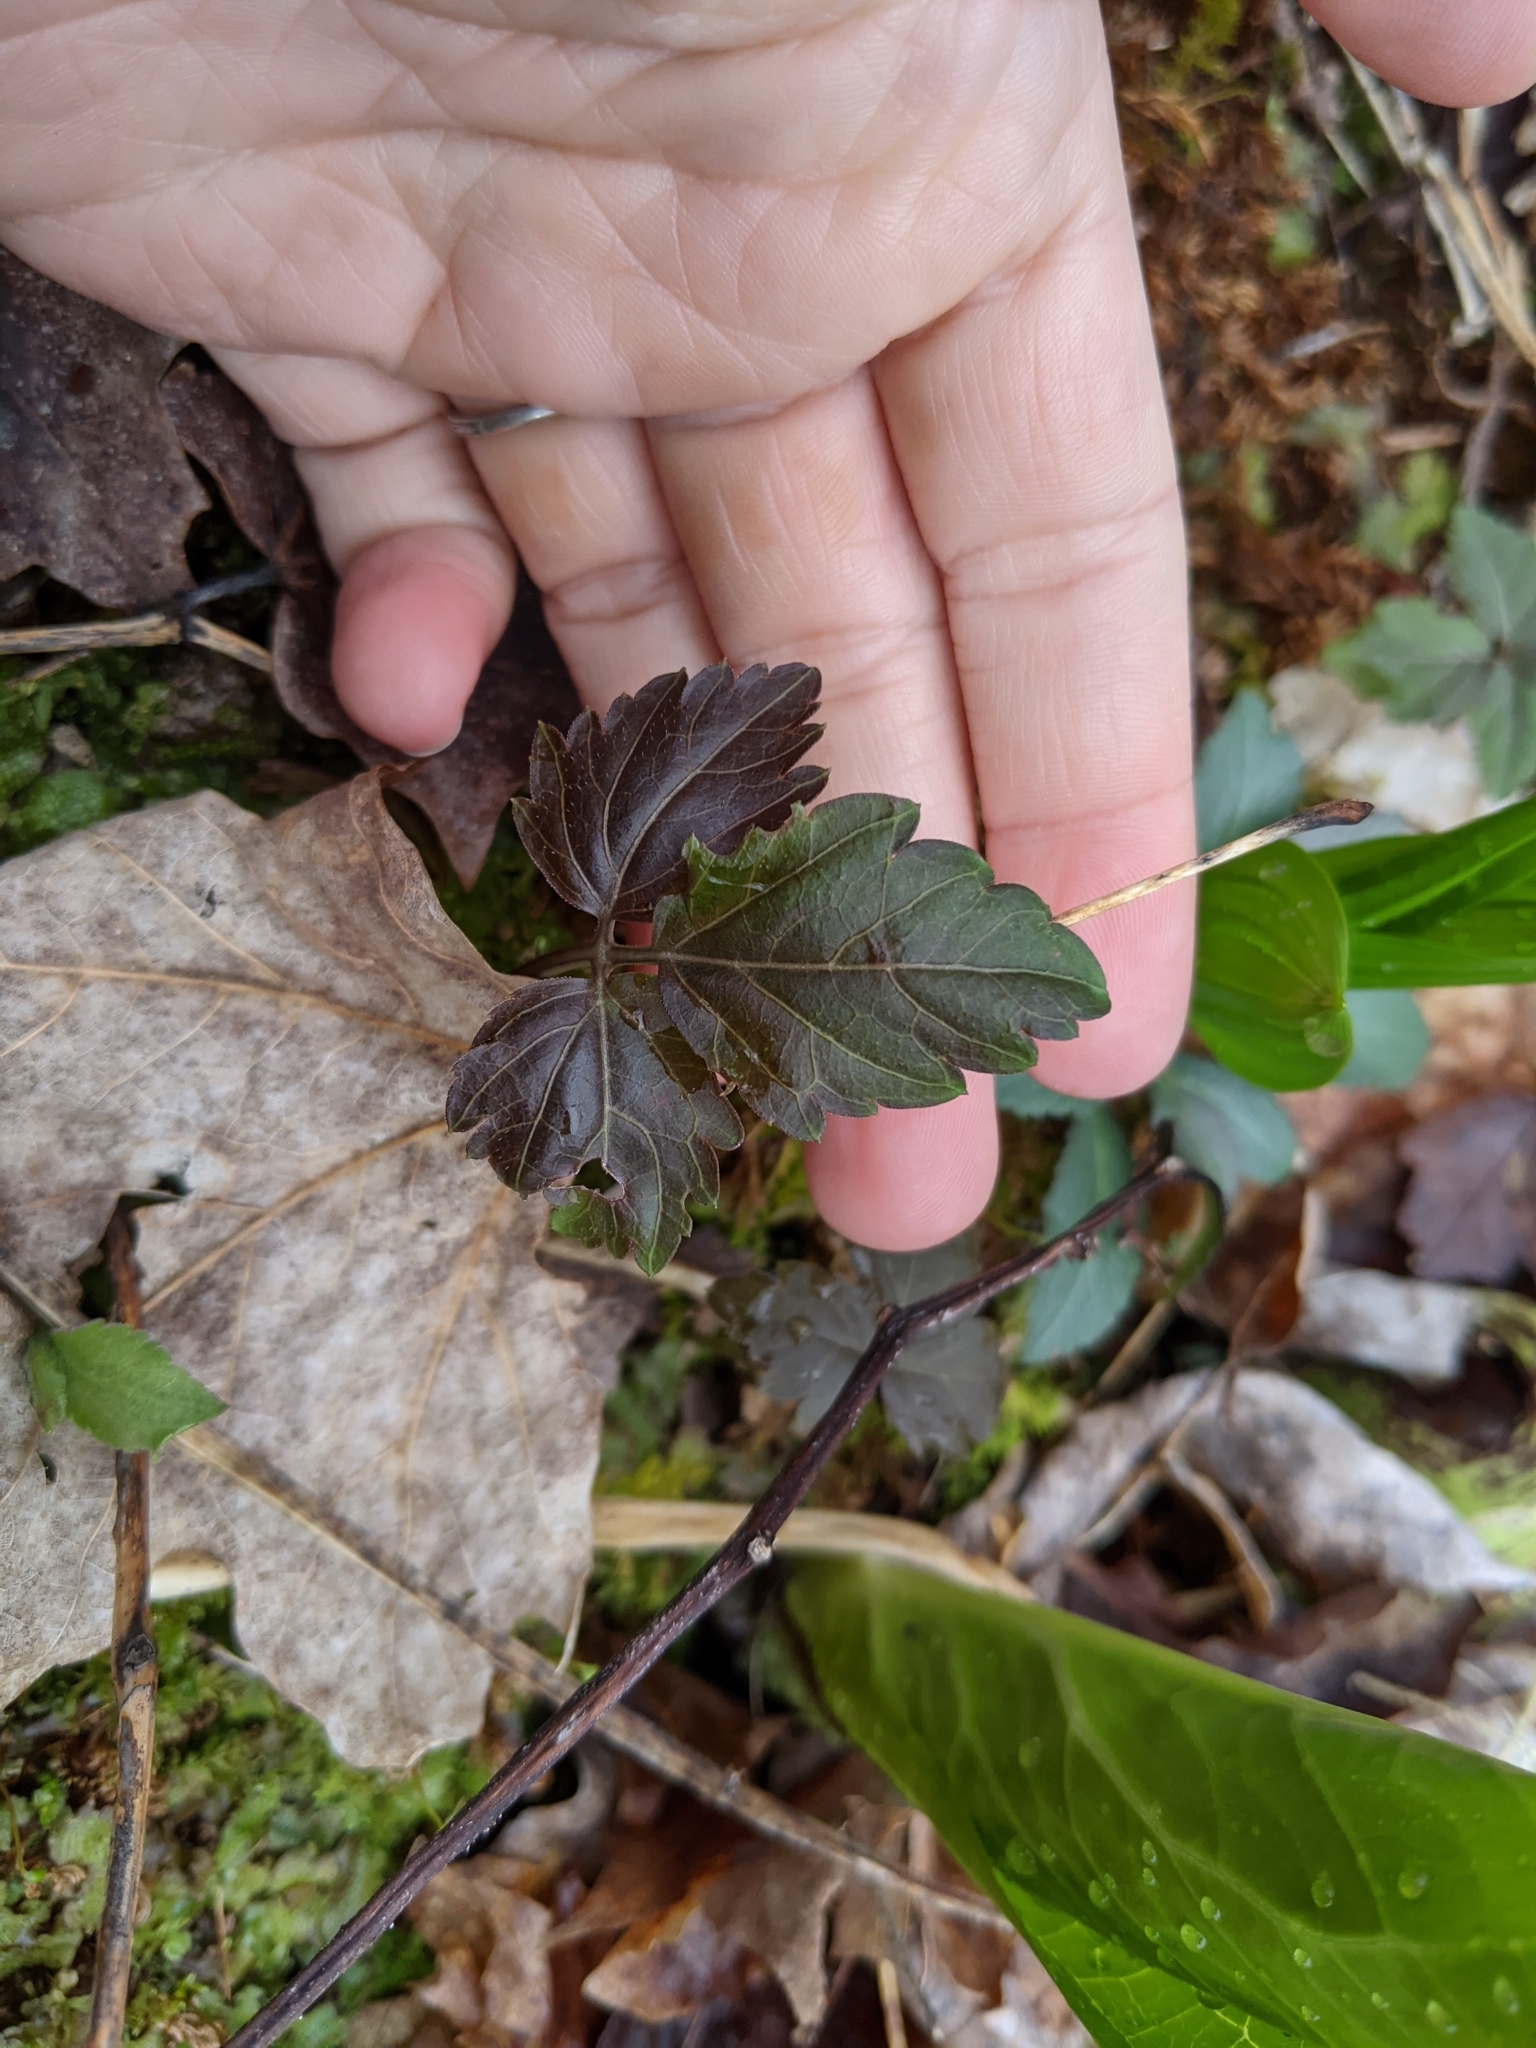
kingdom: Plantae
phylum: Tracheophyta
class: Magnoliopsida
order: Brassicales
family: Brassicaceae
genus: Cardamine
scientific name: Cardamine diphylla
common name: Broad-leaved toothwort
